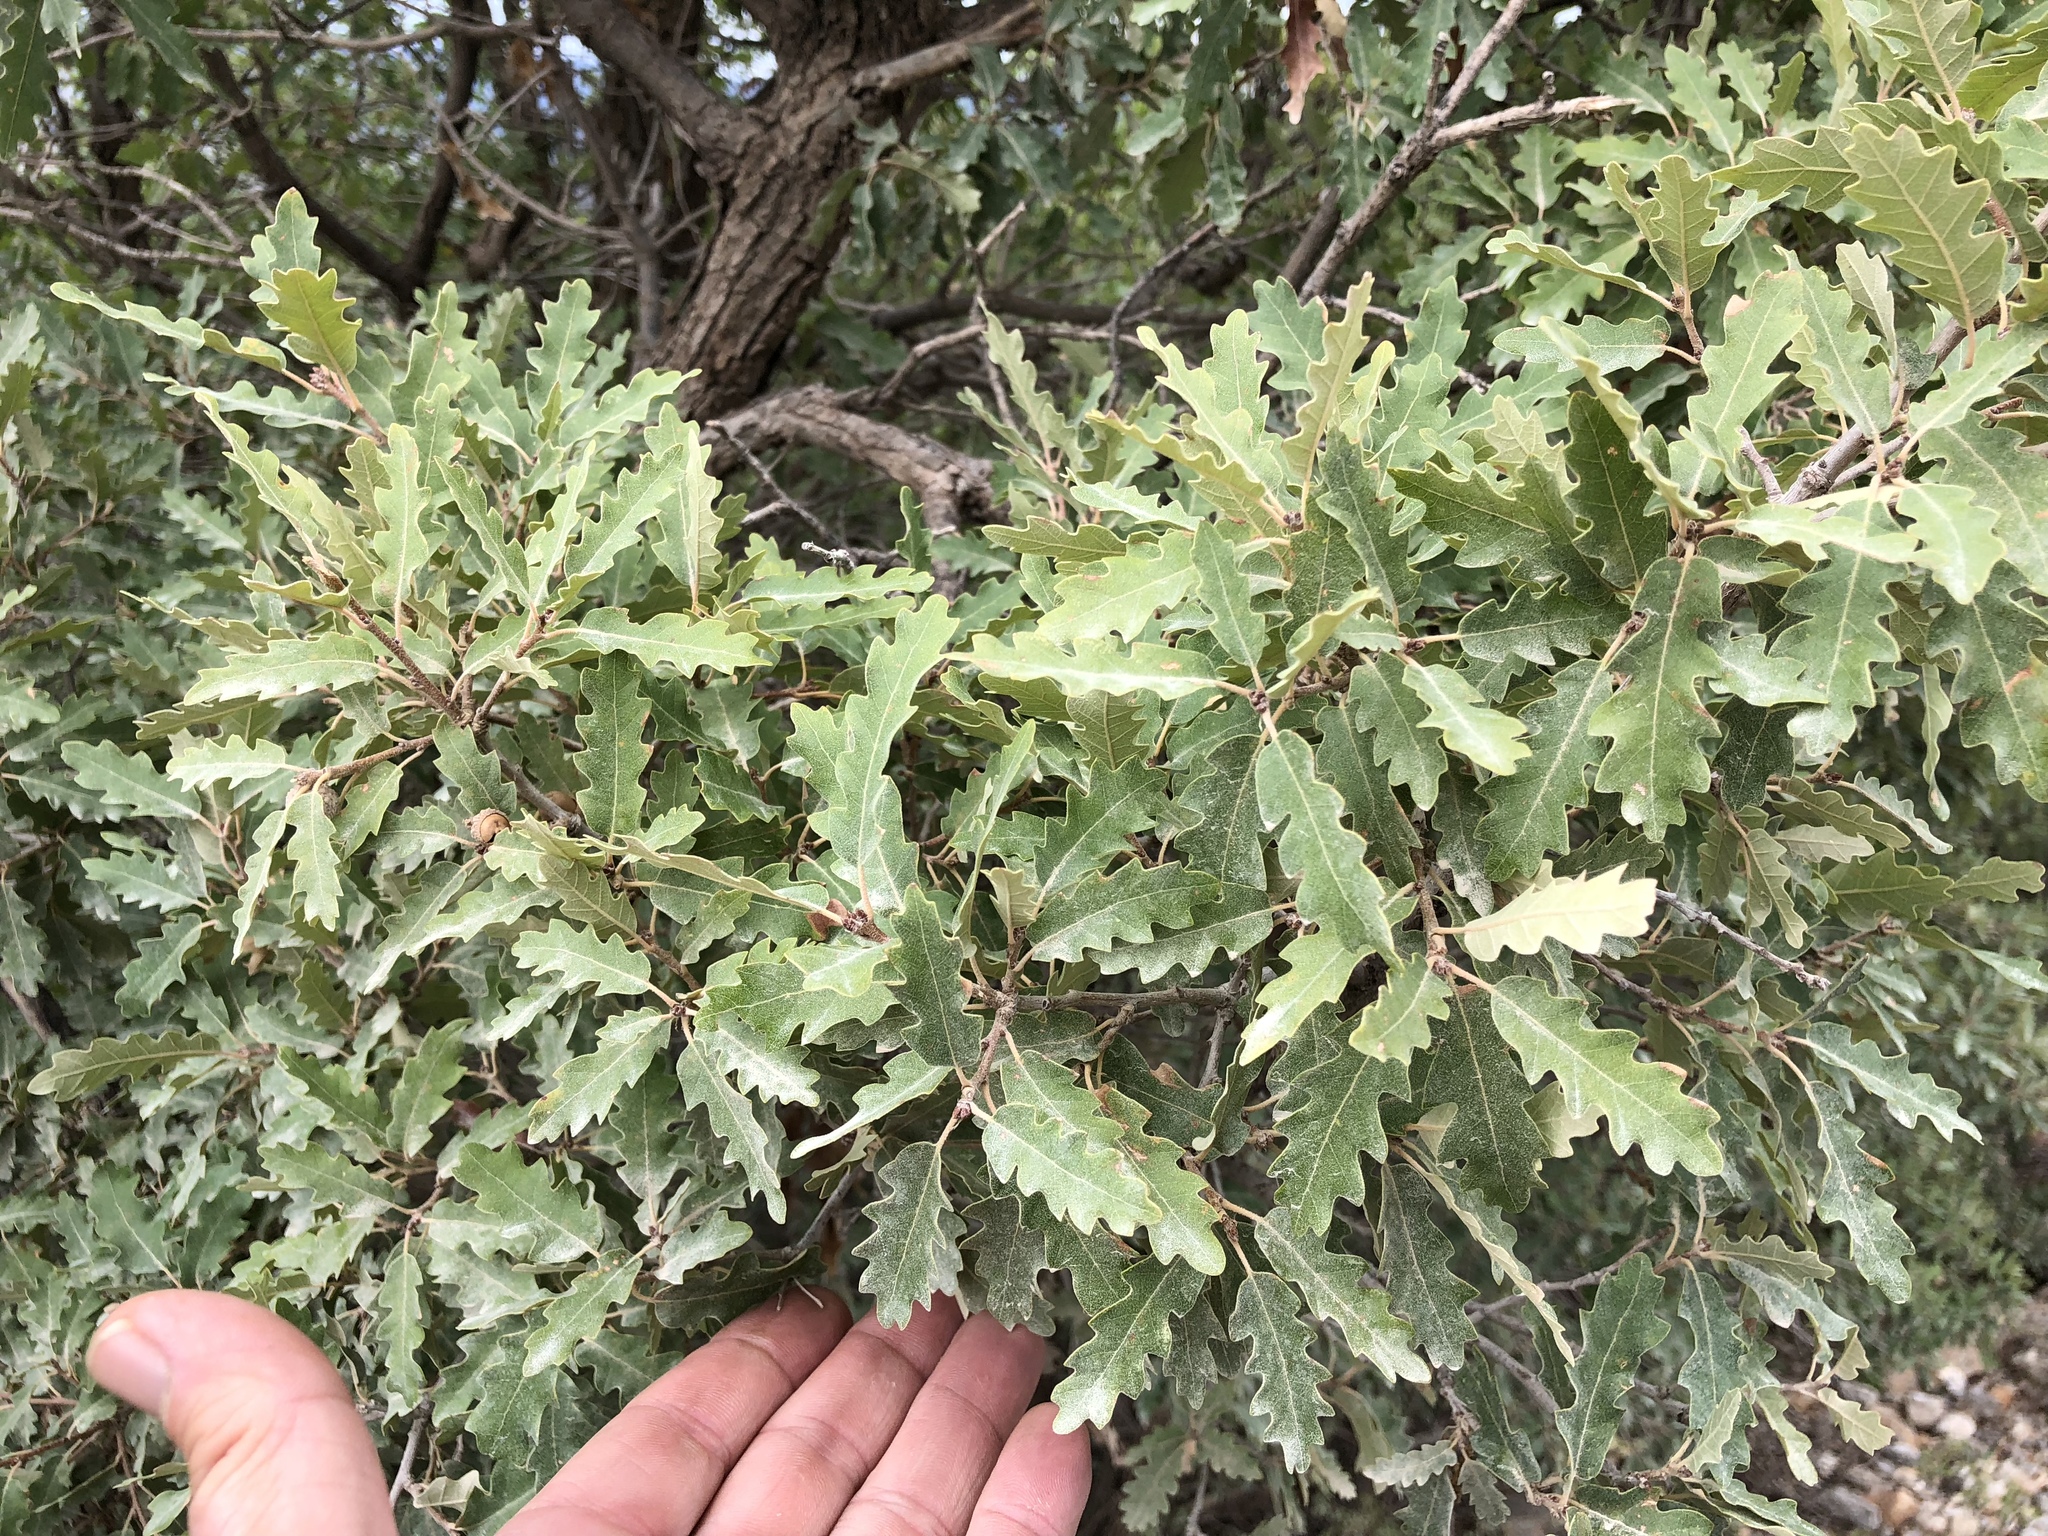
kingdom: Plantae
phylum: Tracheophyta
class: Magnoliopsida
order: Fagales
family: Fagaceae
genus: Quercus
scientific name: Quercus undulata
